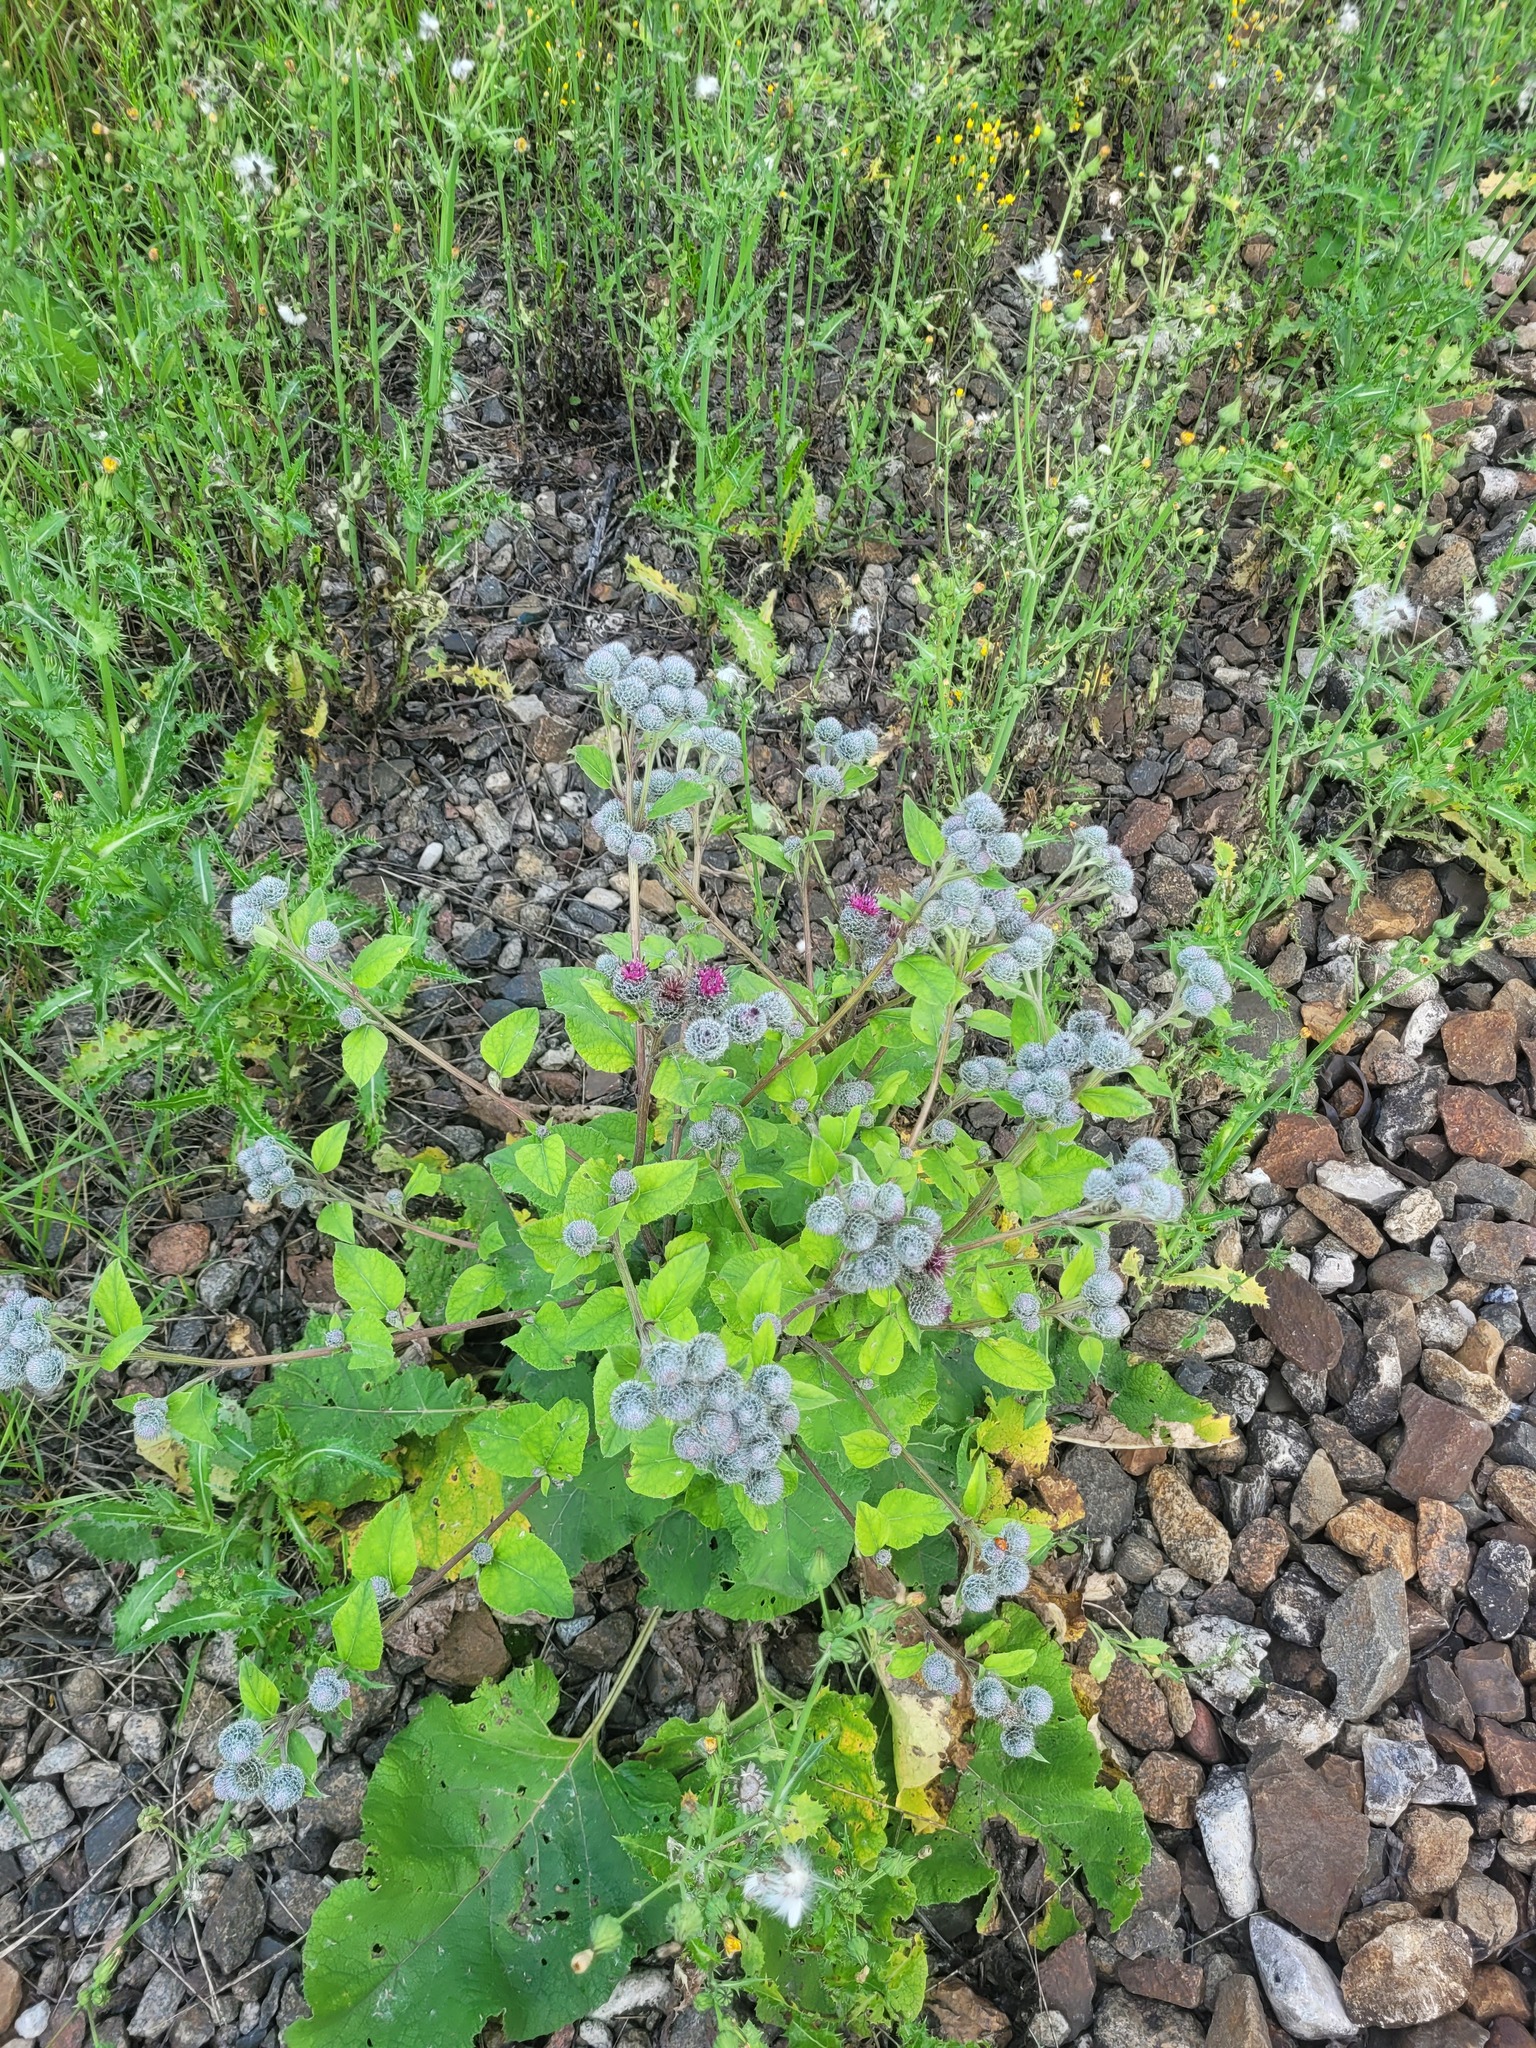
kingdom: Plantae
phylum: Tracheophyta
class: Magnoliopsida
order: Asterales
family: Asteraceae
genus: Arctium
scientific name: Arctium tomentosum
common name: Woolly burdock
